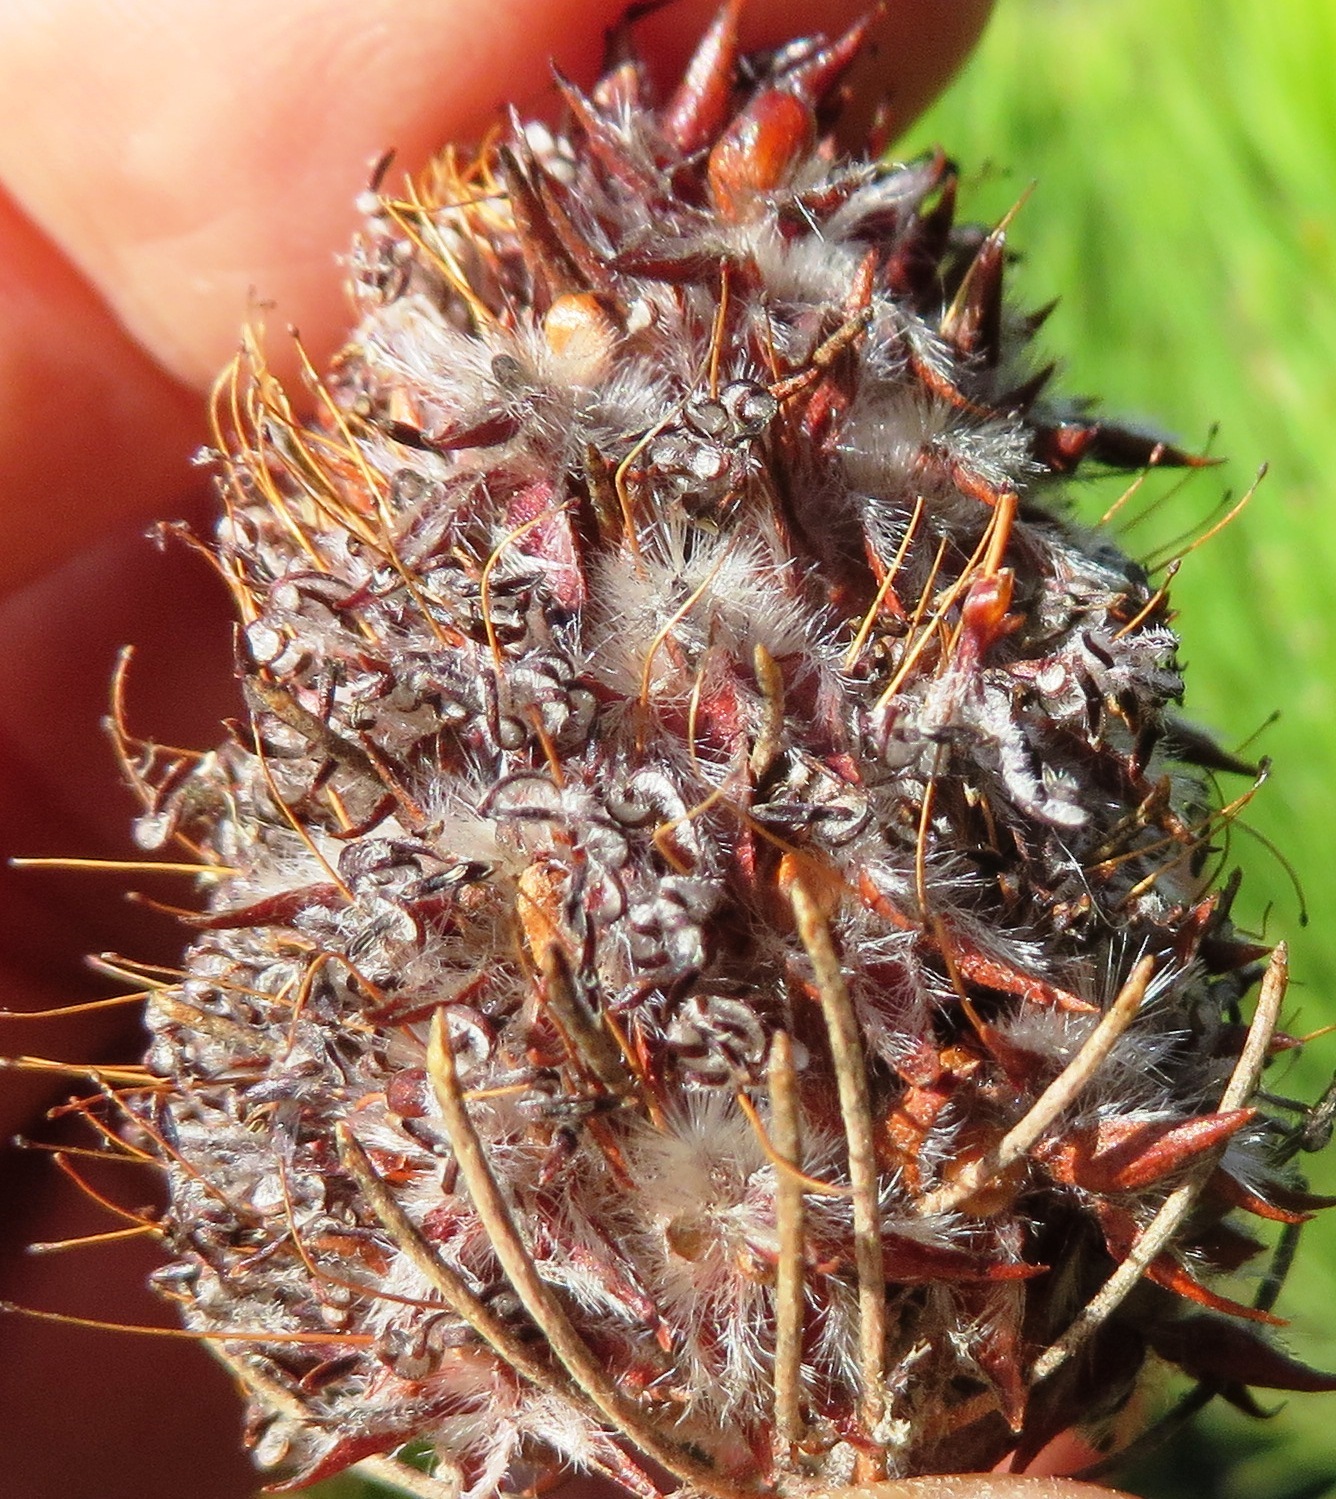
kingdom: Plantae
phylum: Tracheophyta
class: Magnoliopsida
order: Proteales
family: Proteaceae
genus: Sorocephalus
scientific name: Sorocephalus pinifolius
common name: Long-leaf clusterhead
